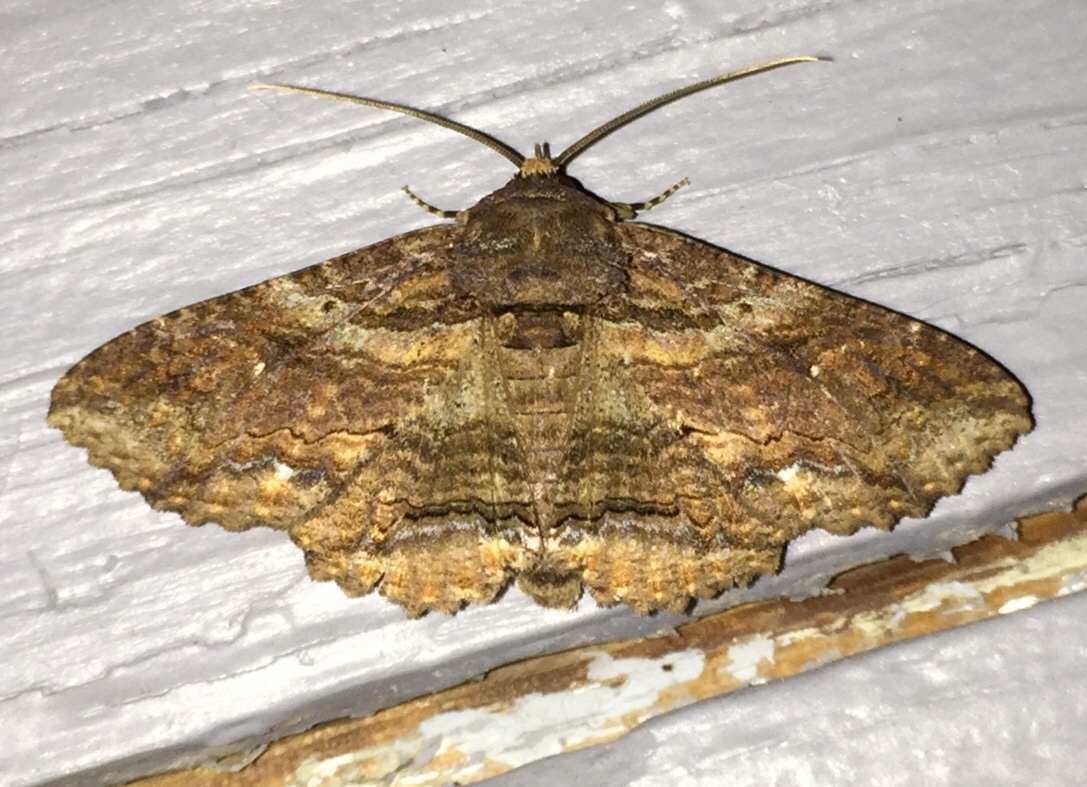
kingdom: Animalia
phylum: Arthropoda
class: Insecta
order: Lepidoptera
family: Erebidae
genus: Zale
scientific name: Zale lunata
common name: Lunate zale moth
